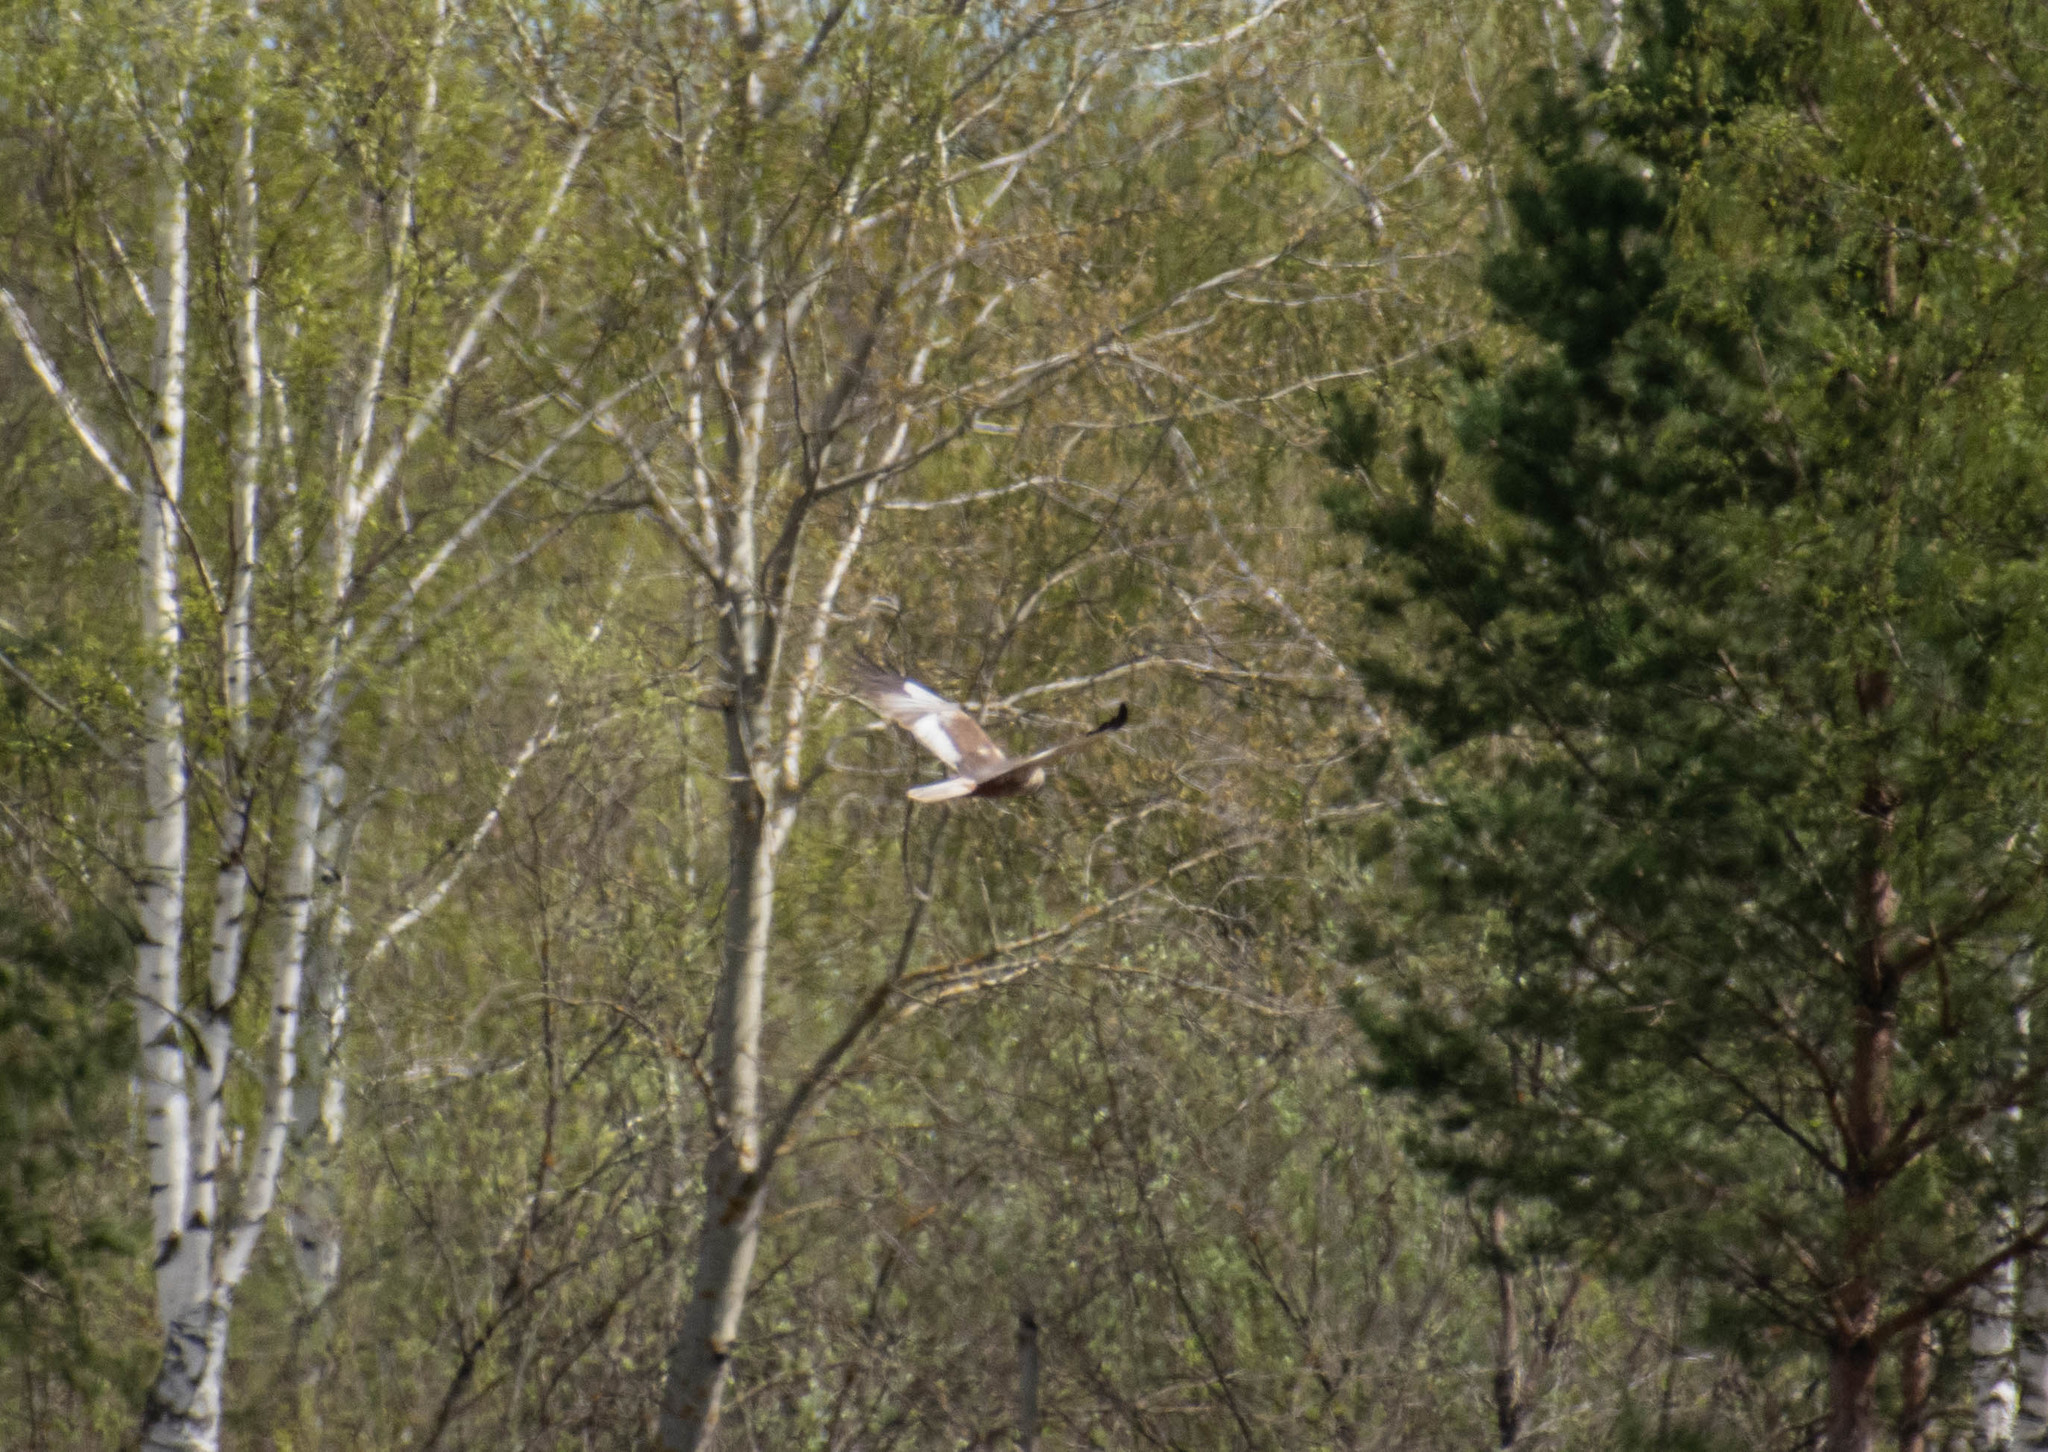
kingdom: Animalia
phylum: Chordata
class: Aves
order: Accipitriformes
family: Accipitridae
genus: Circus
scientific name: Circus aeruginosus
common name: Western marsh harrier
